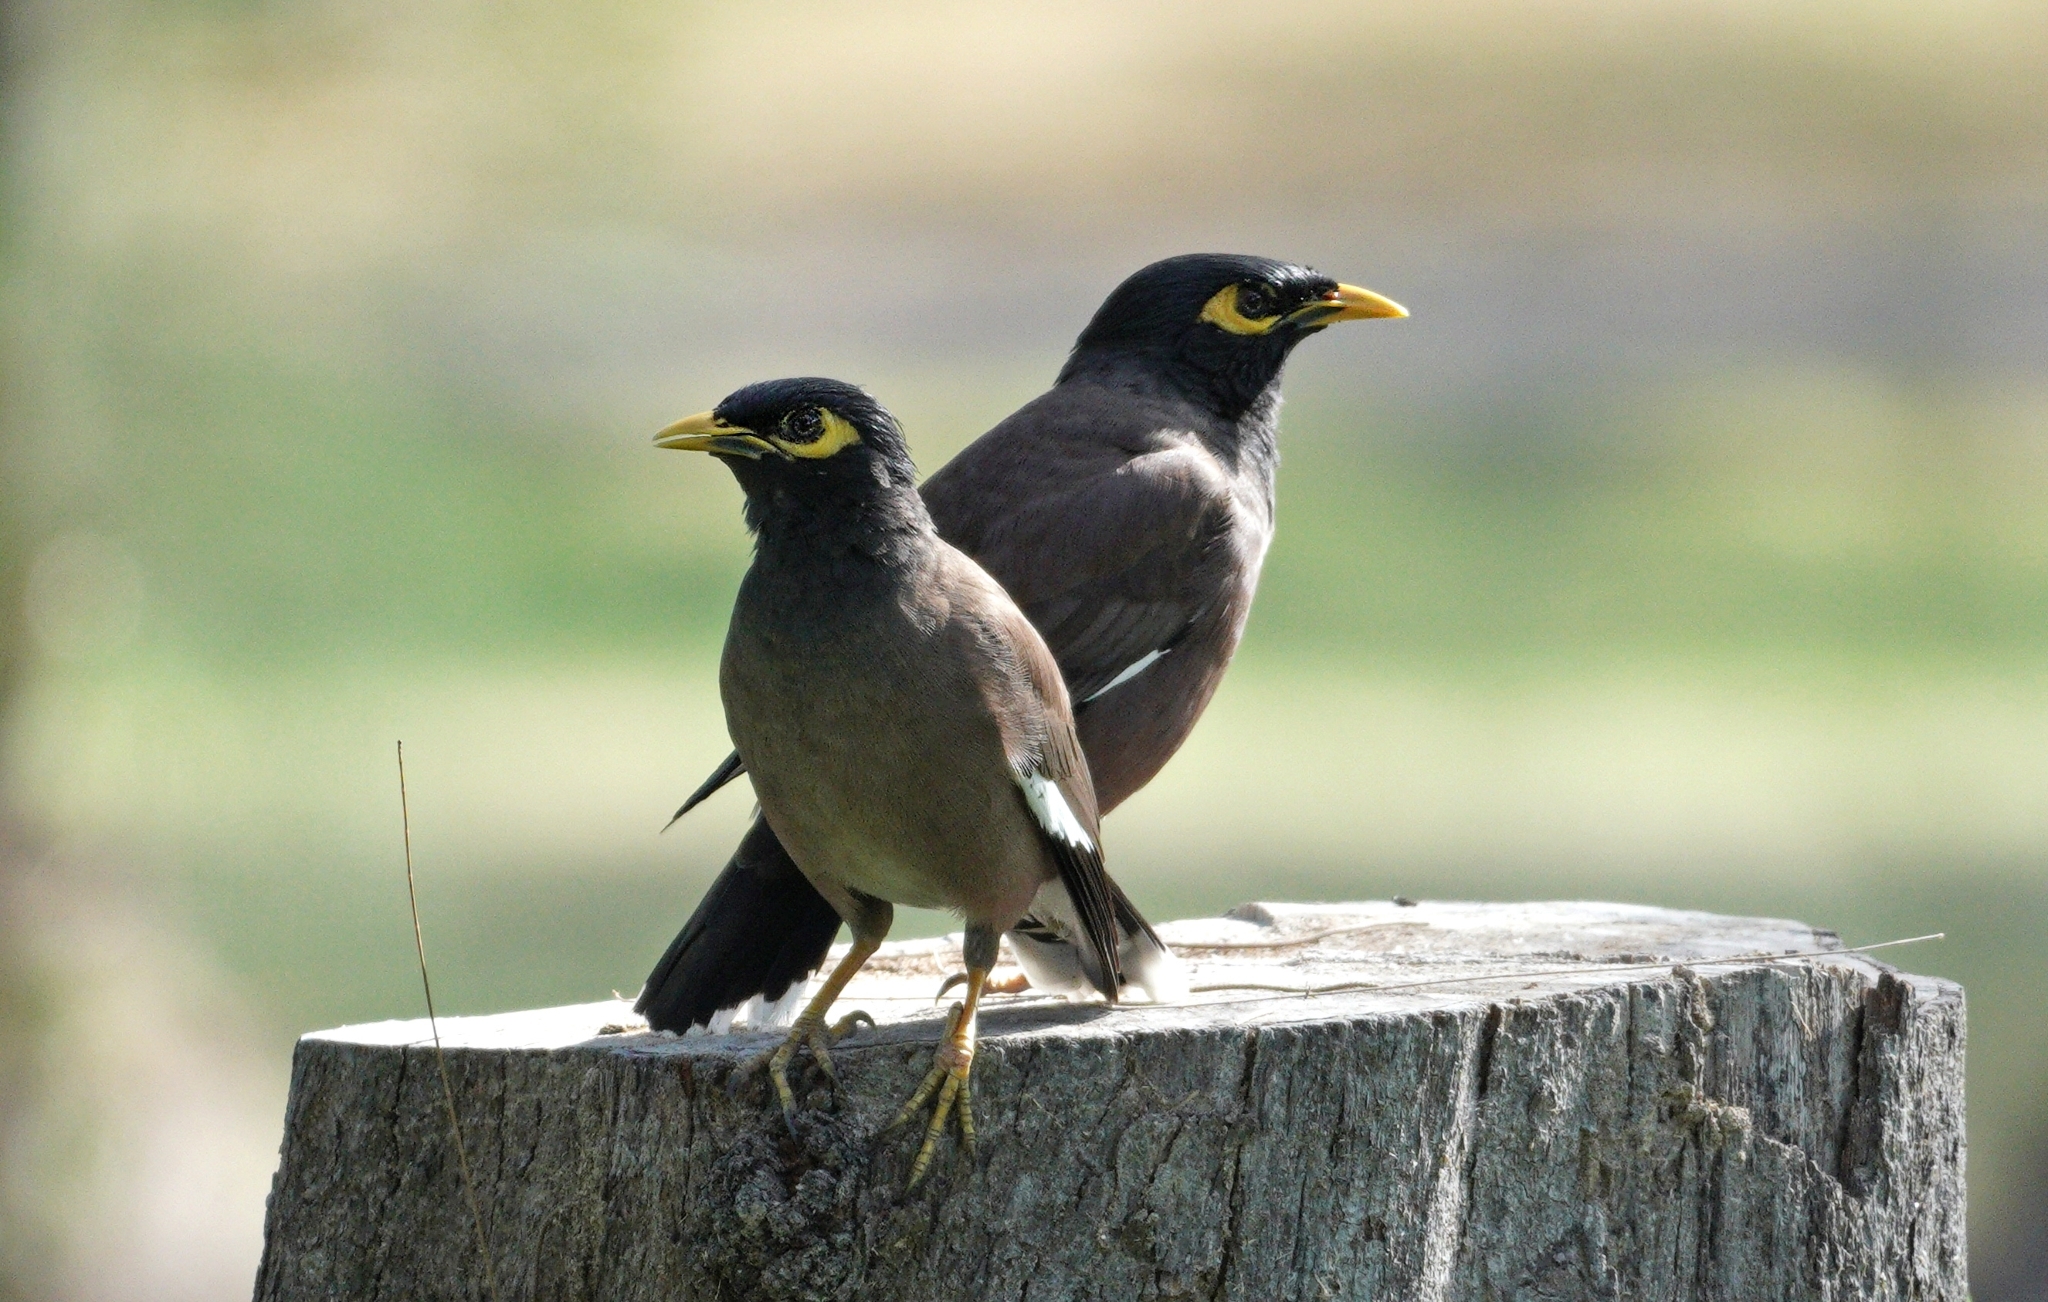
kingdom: Animalia
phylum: Chordata
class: Aves
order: Passeriformes
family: Sturnidae
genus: Acridotheres
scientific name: Acridotheres tristis
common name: Common myna
